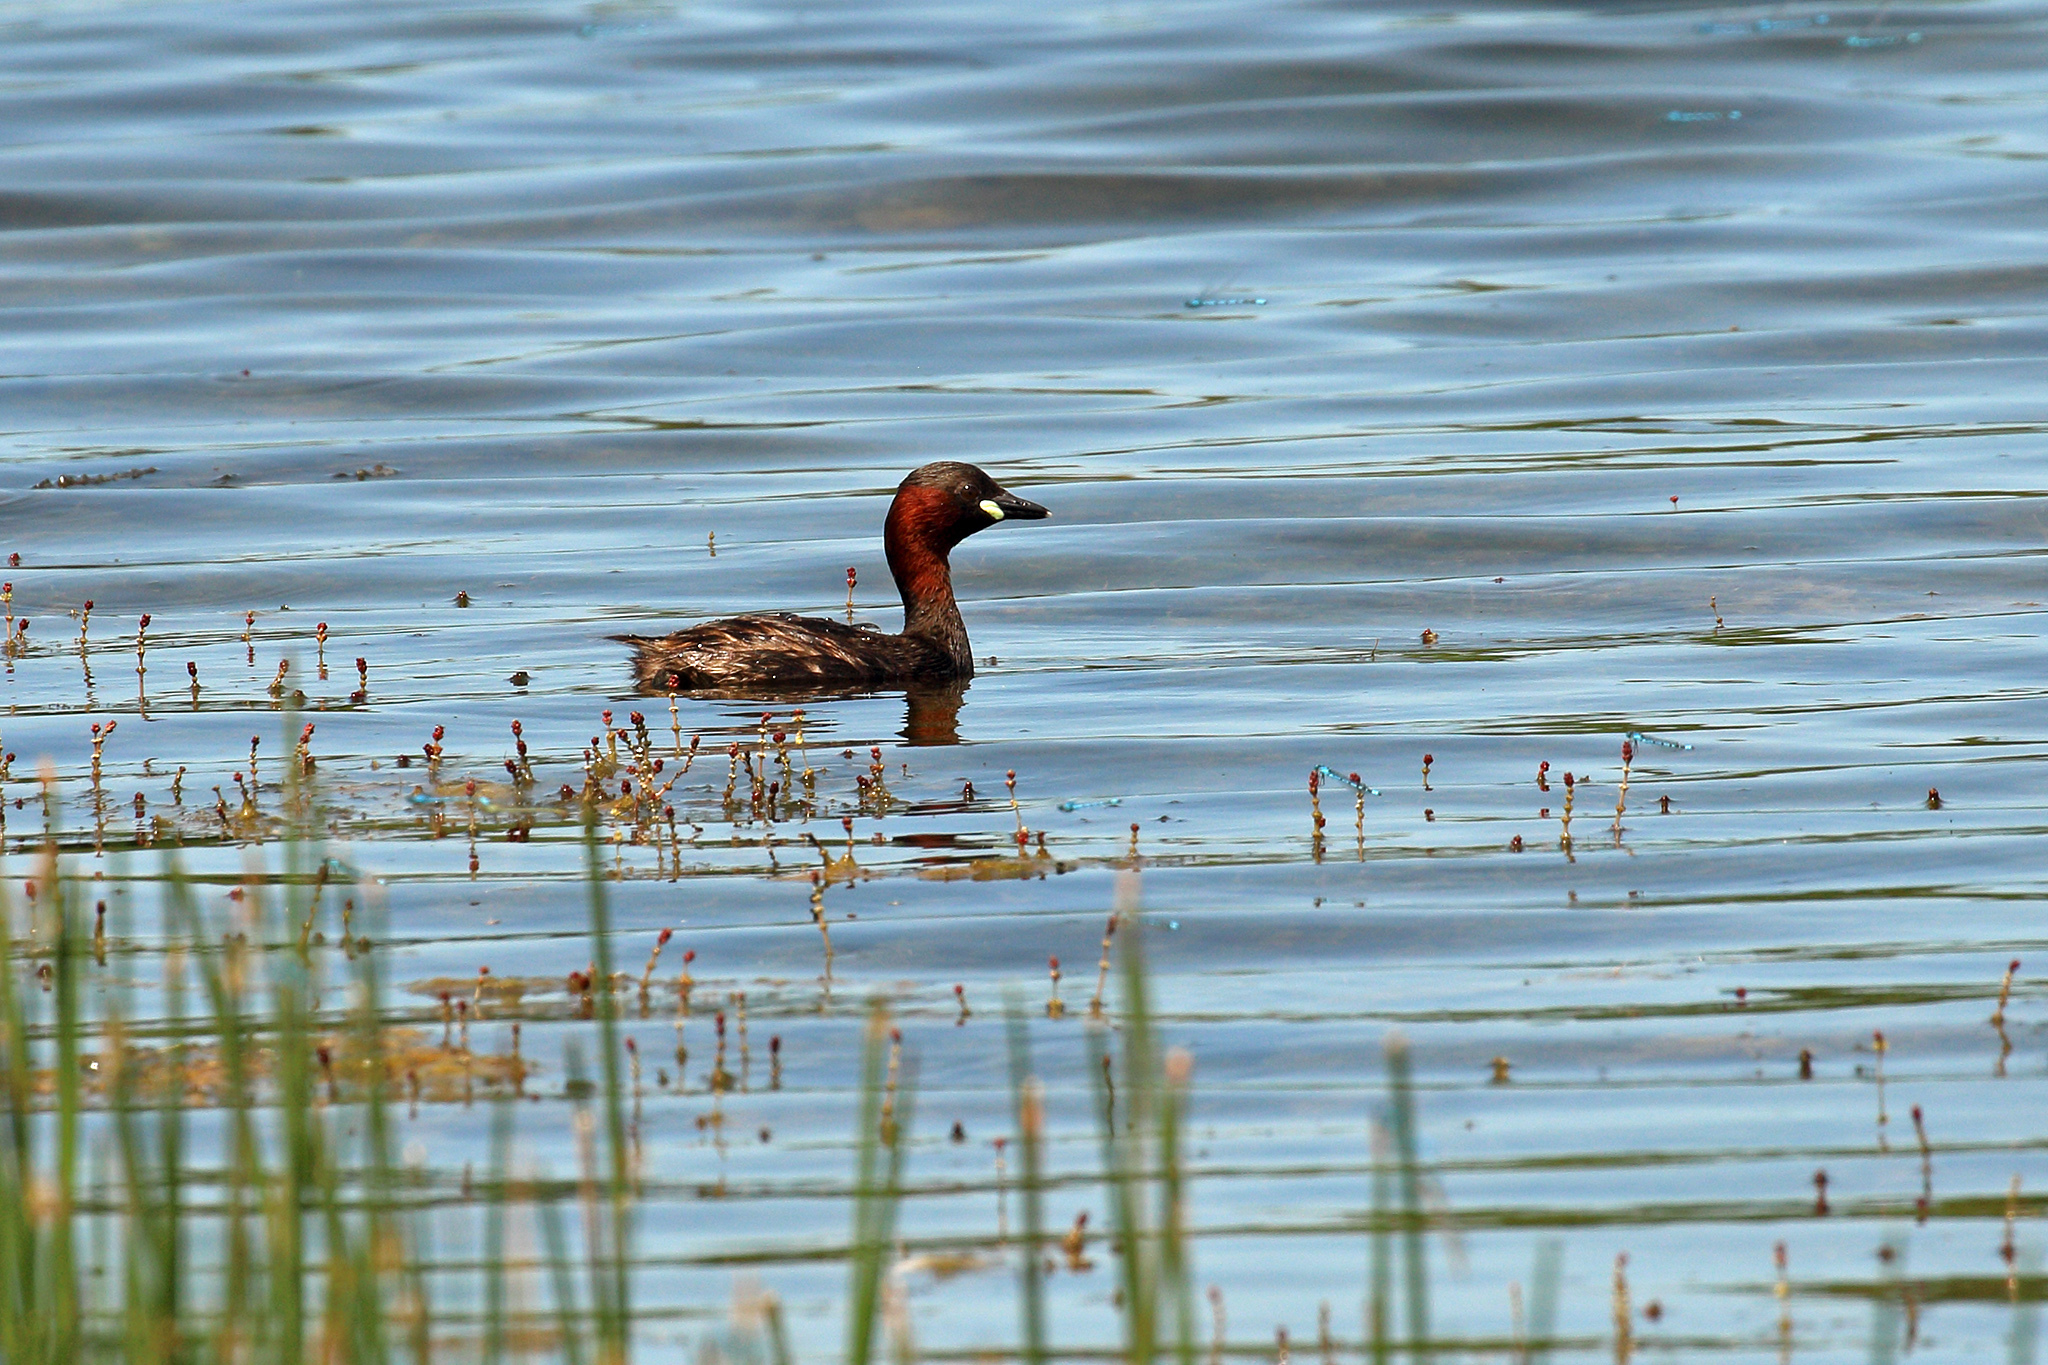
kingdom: Animalia
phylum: Chordata
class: Aves
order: Podicipediformes
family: Podicipedidae
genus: Tachybaptus
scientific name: Tachybaptus ruficollis
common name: Little grebe
